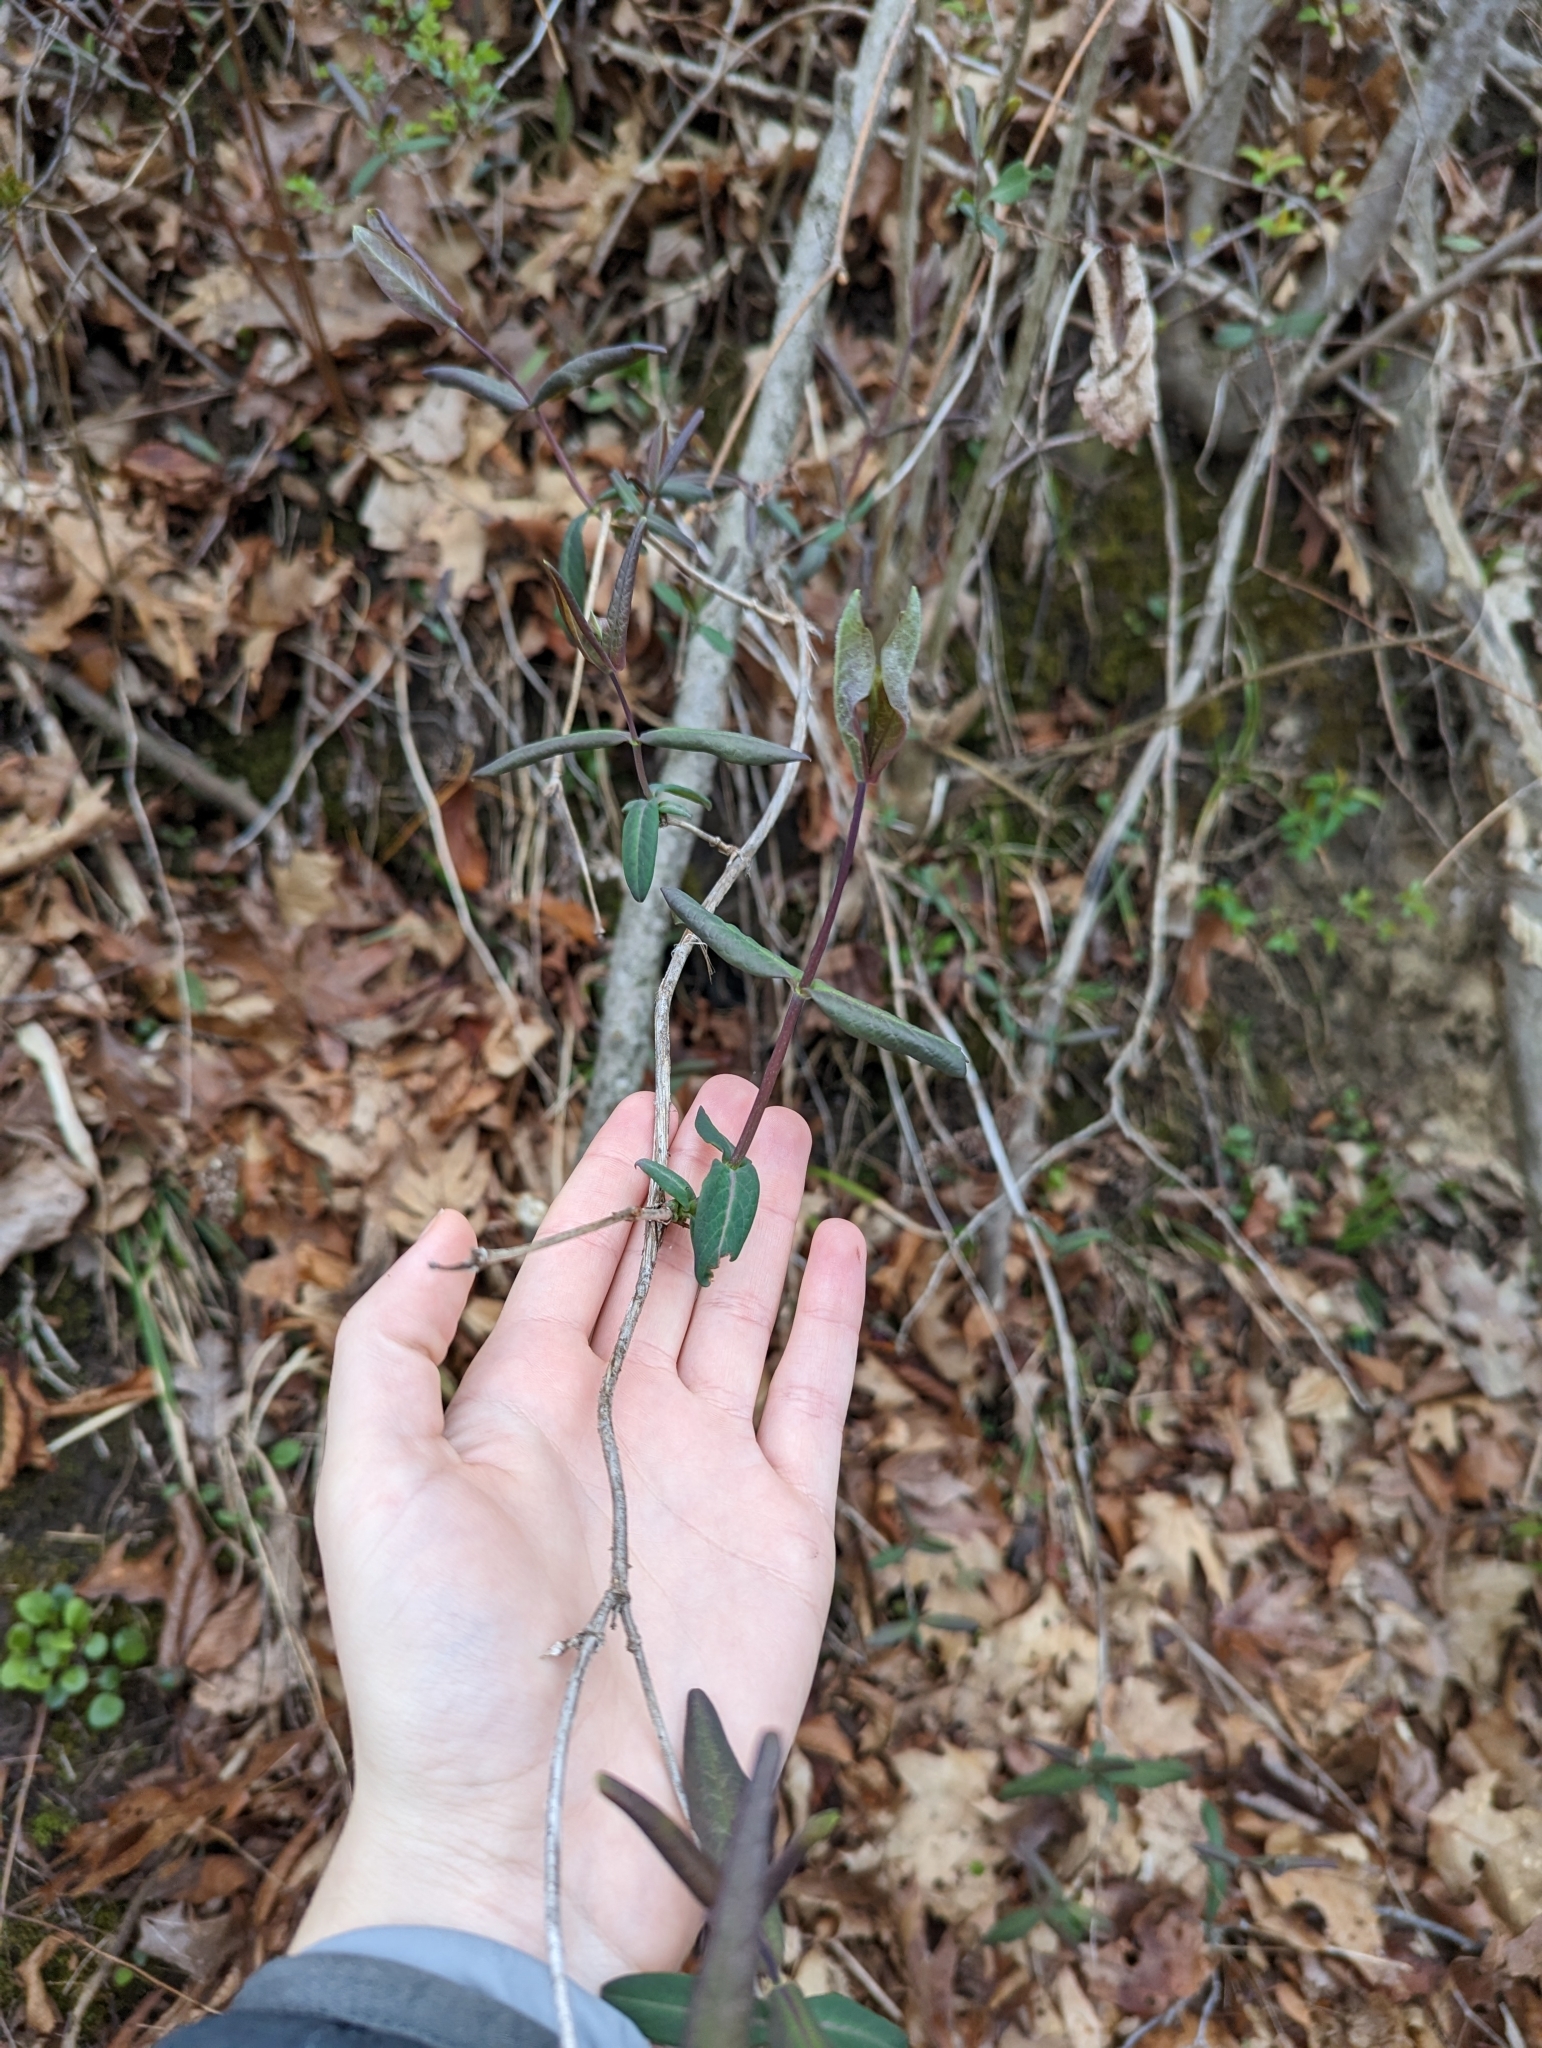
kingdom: Plantae
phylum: Tracheophyta
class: Magnoliopsida
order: Dipsacales
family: Caprifoliaceae
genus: Lonicera
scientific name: Lonicera dioica
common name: Limber honeysuckle
